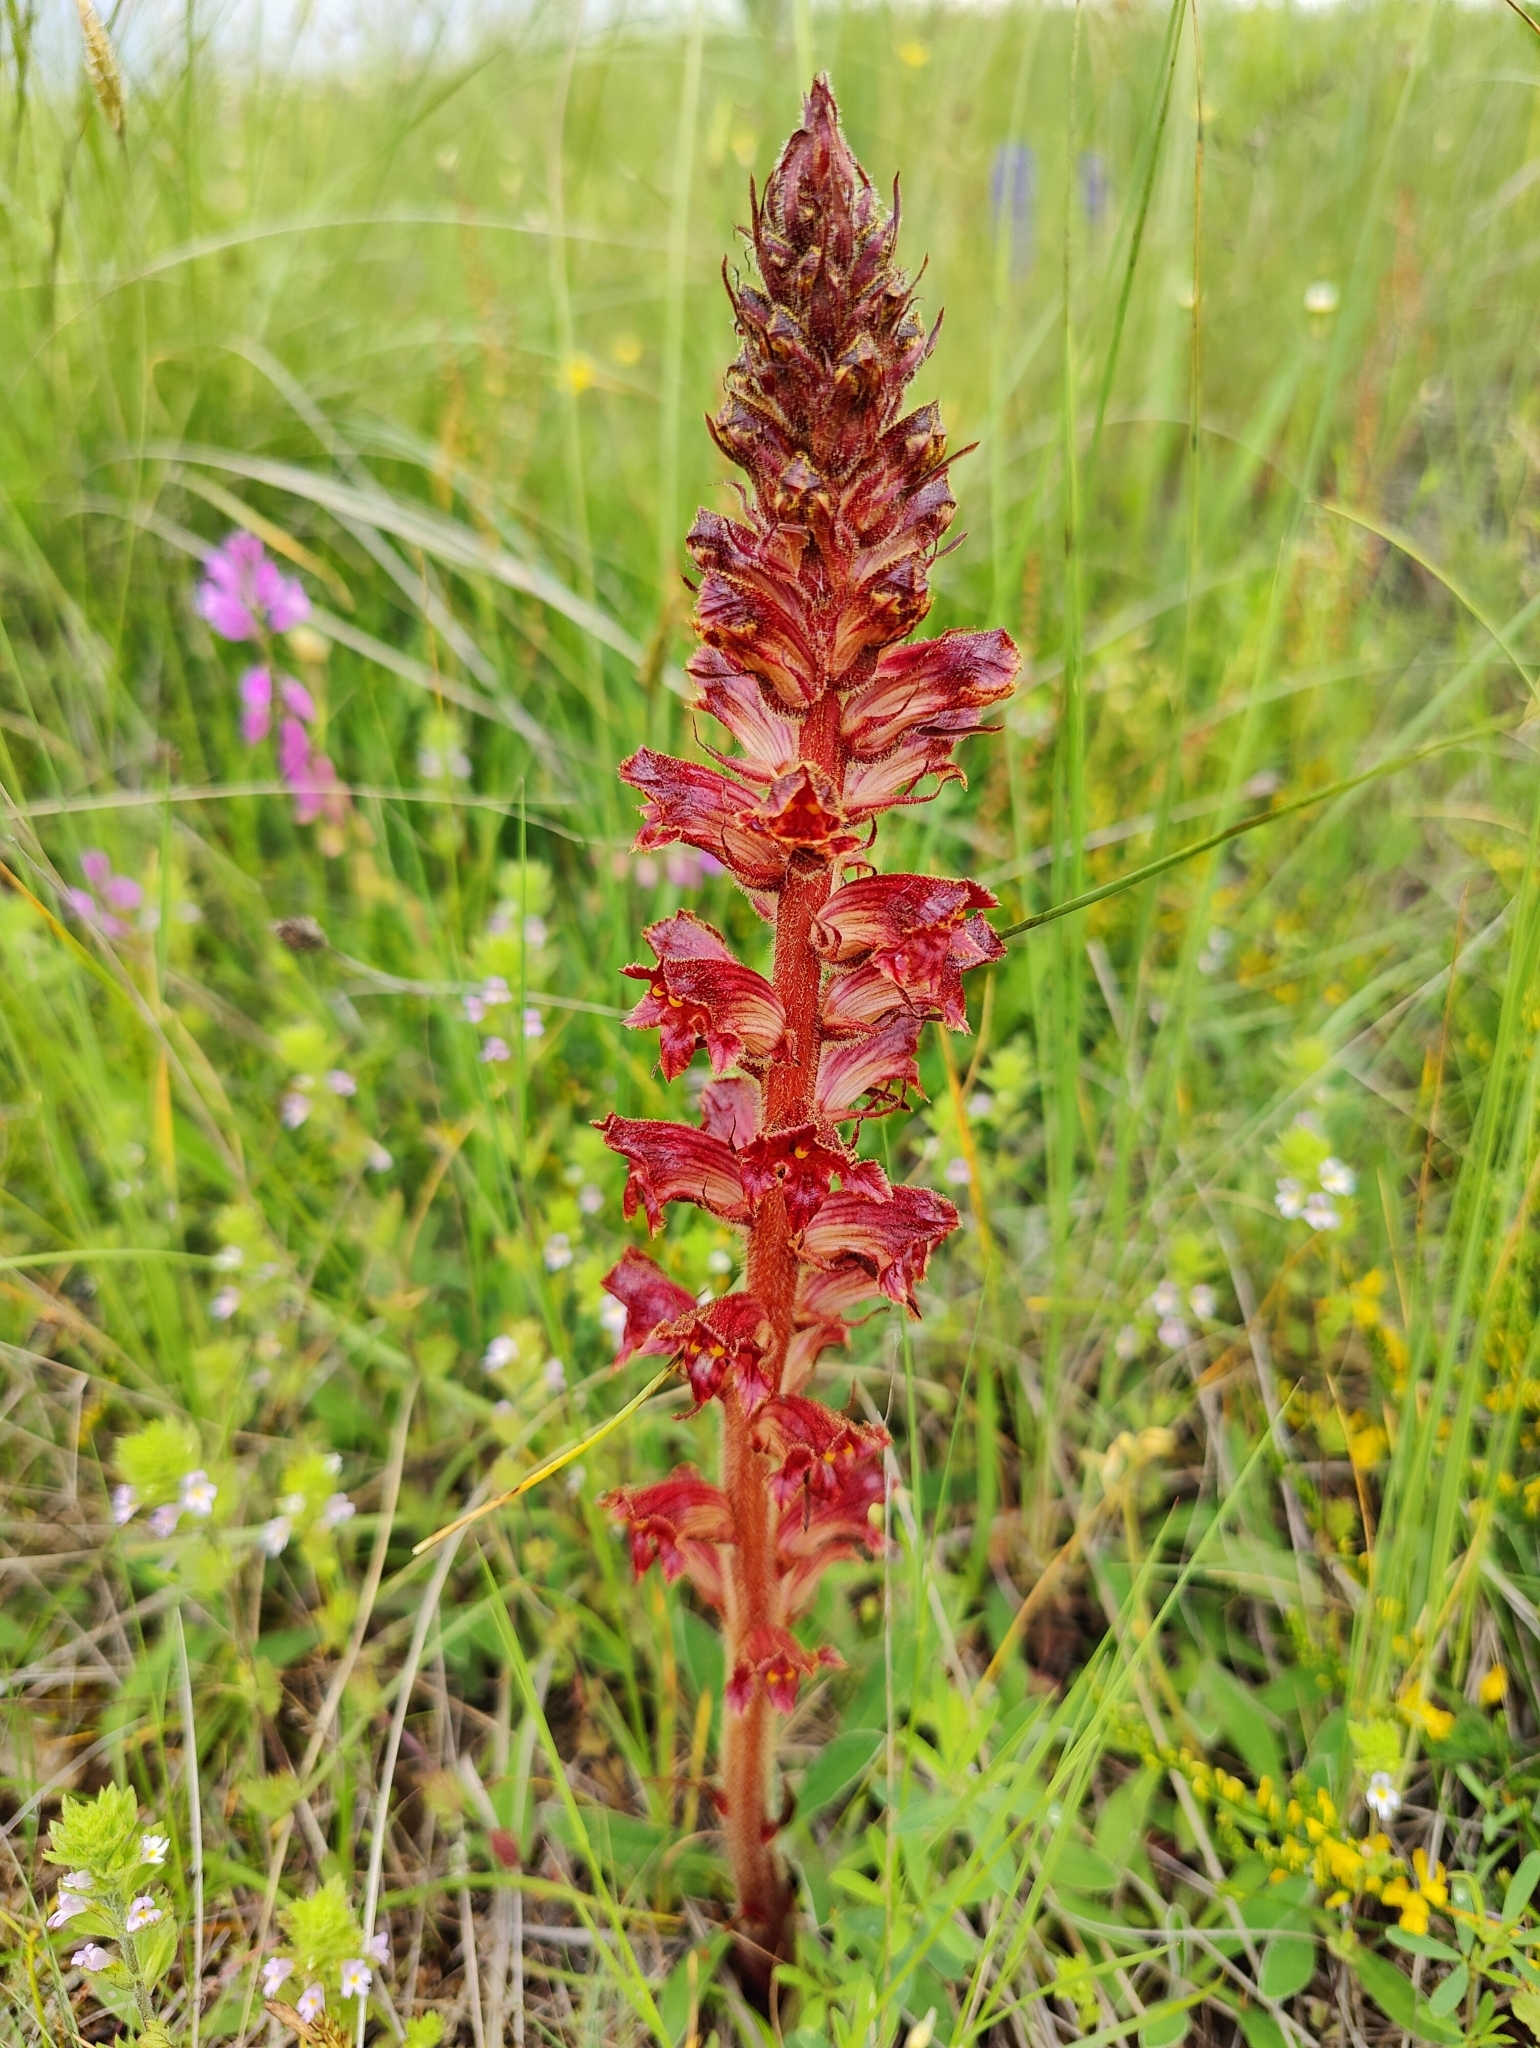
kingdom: Plantae
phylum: Tracheophyta
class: Magnoliopsida
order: Lamiales
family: Orobanchaceae
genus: Orobanche
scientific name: Orobanche gracilis
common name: Slender broomrape
